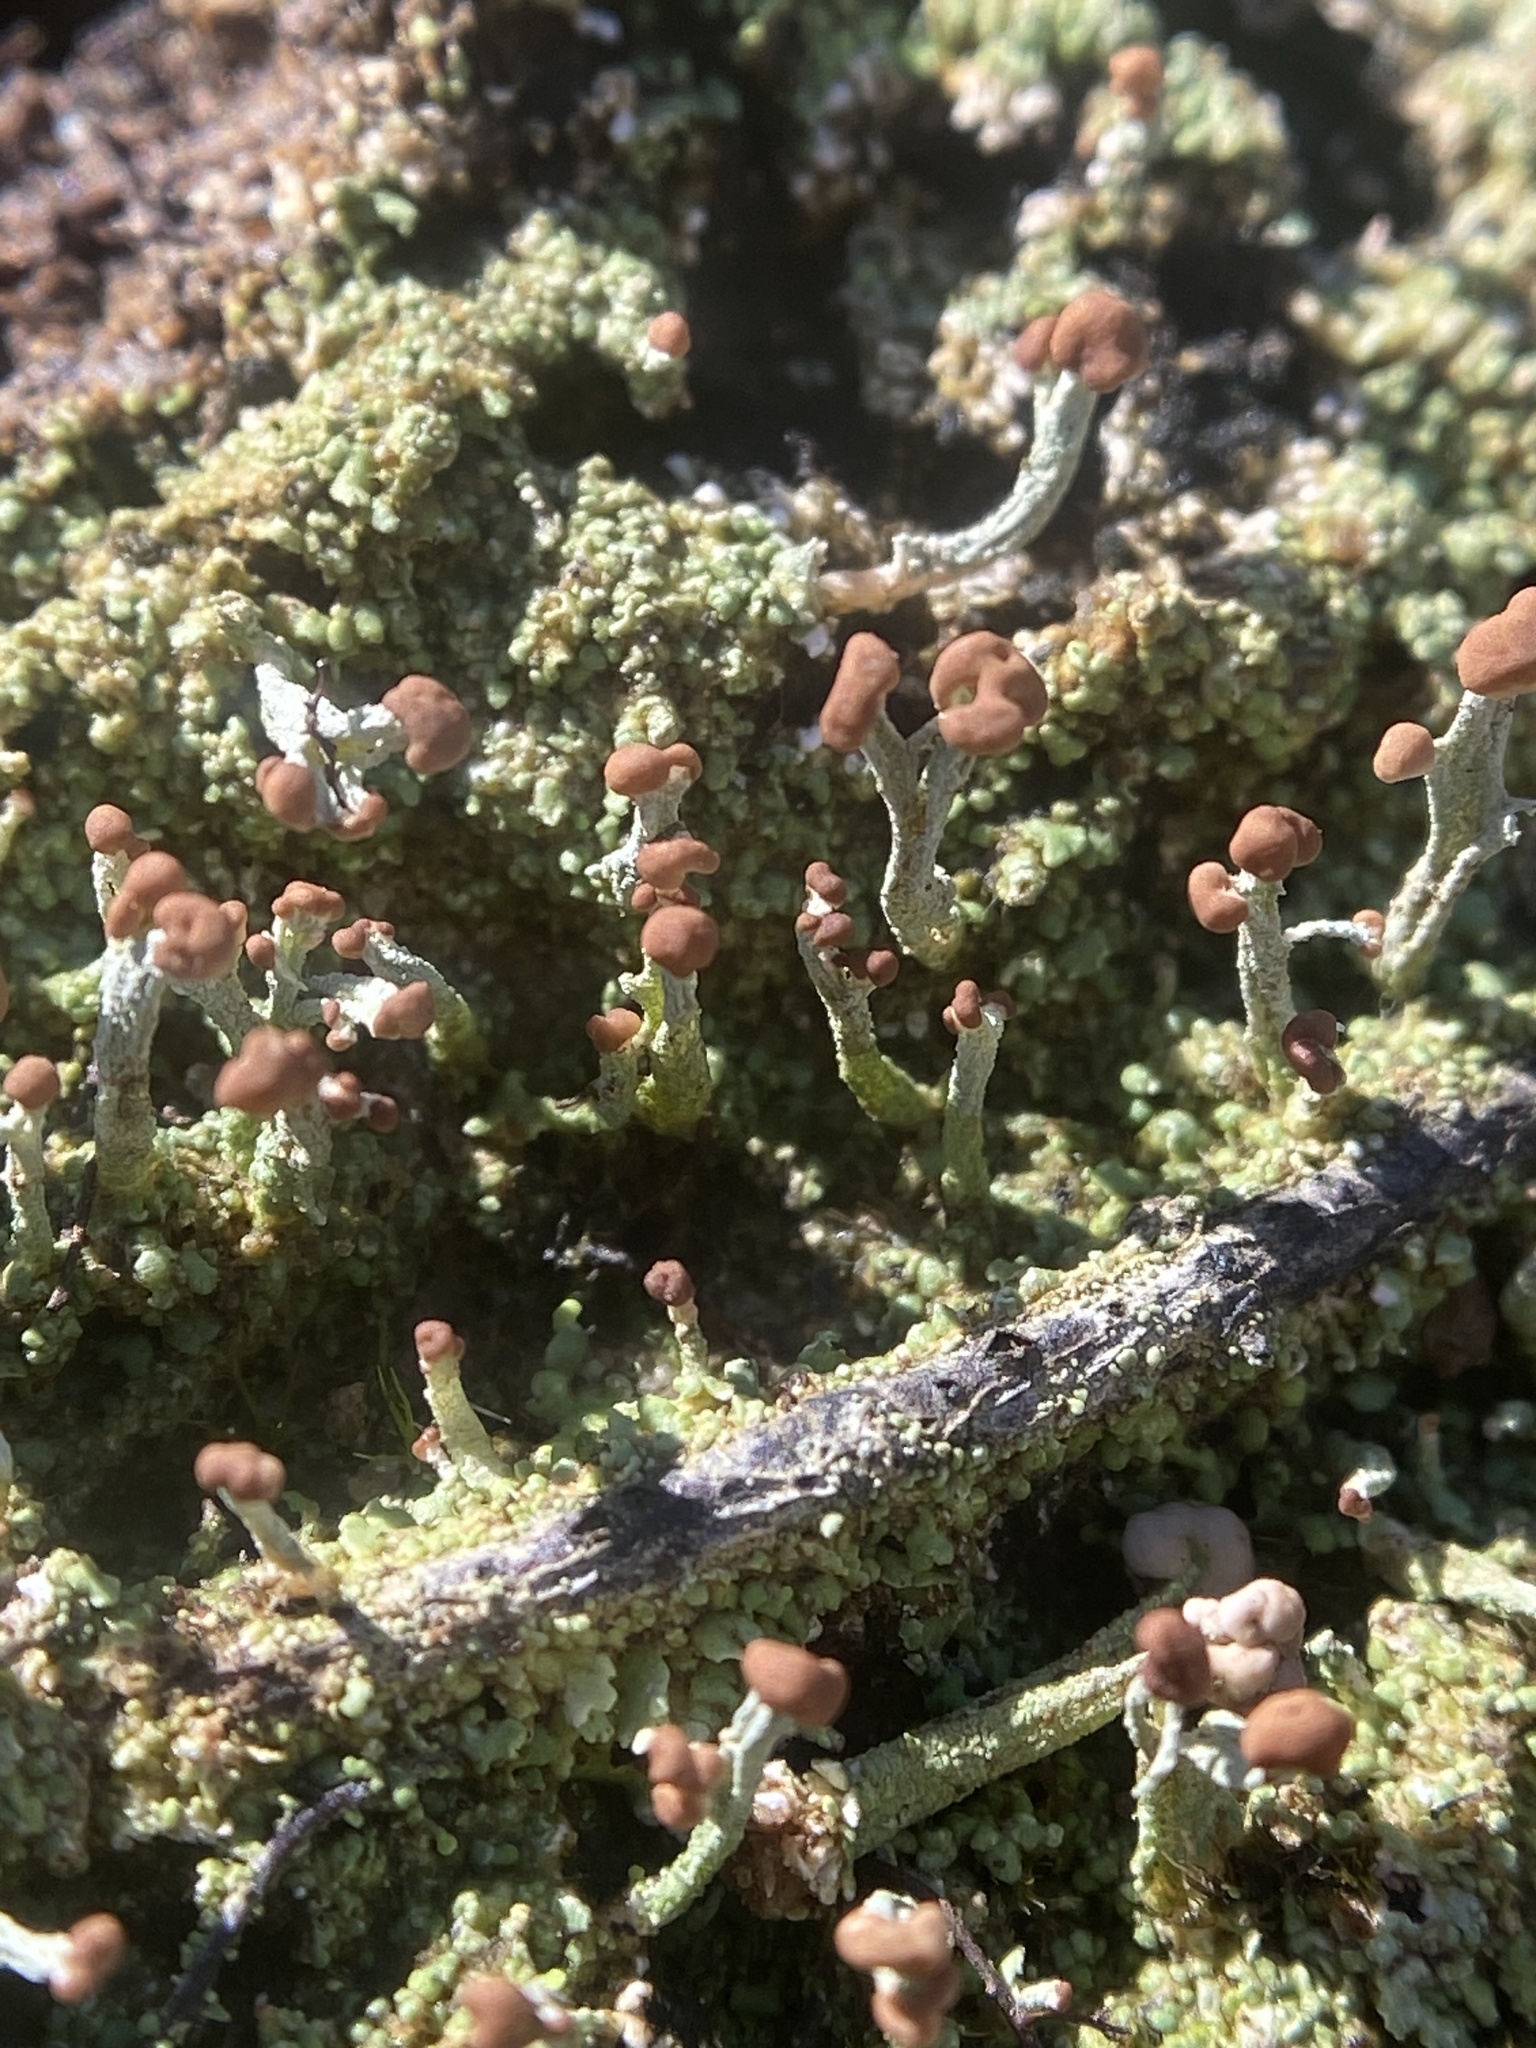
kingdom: Fungi
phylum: Ascomycota
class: Lecanoromycetes
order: Lecanorales
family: Cladoniaceae
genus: Cladonia
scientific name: Cladonia peziziformis
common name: Cup lichen
